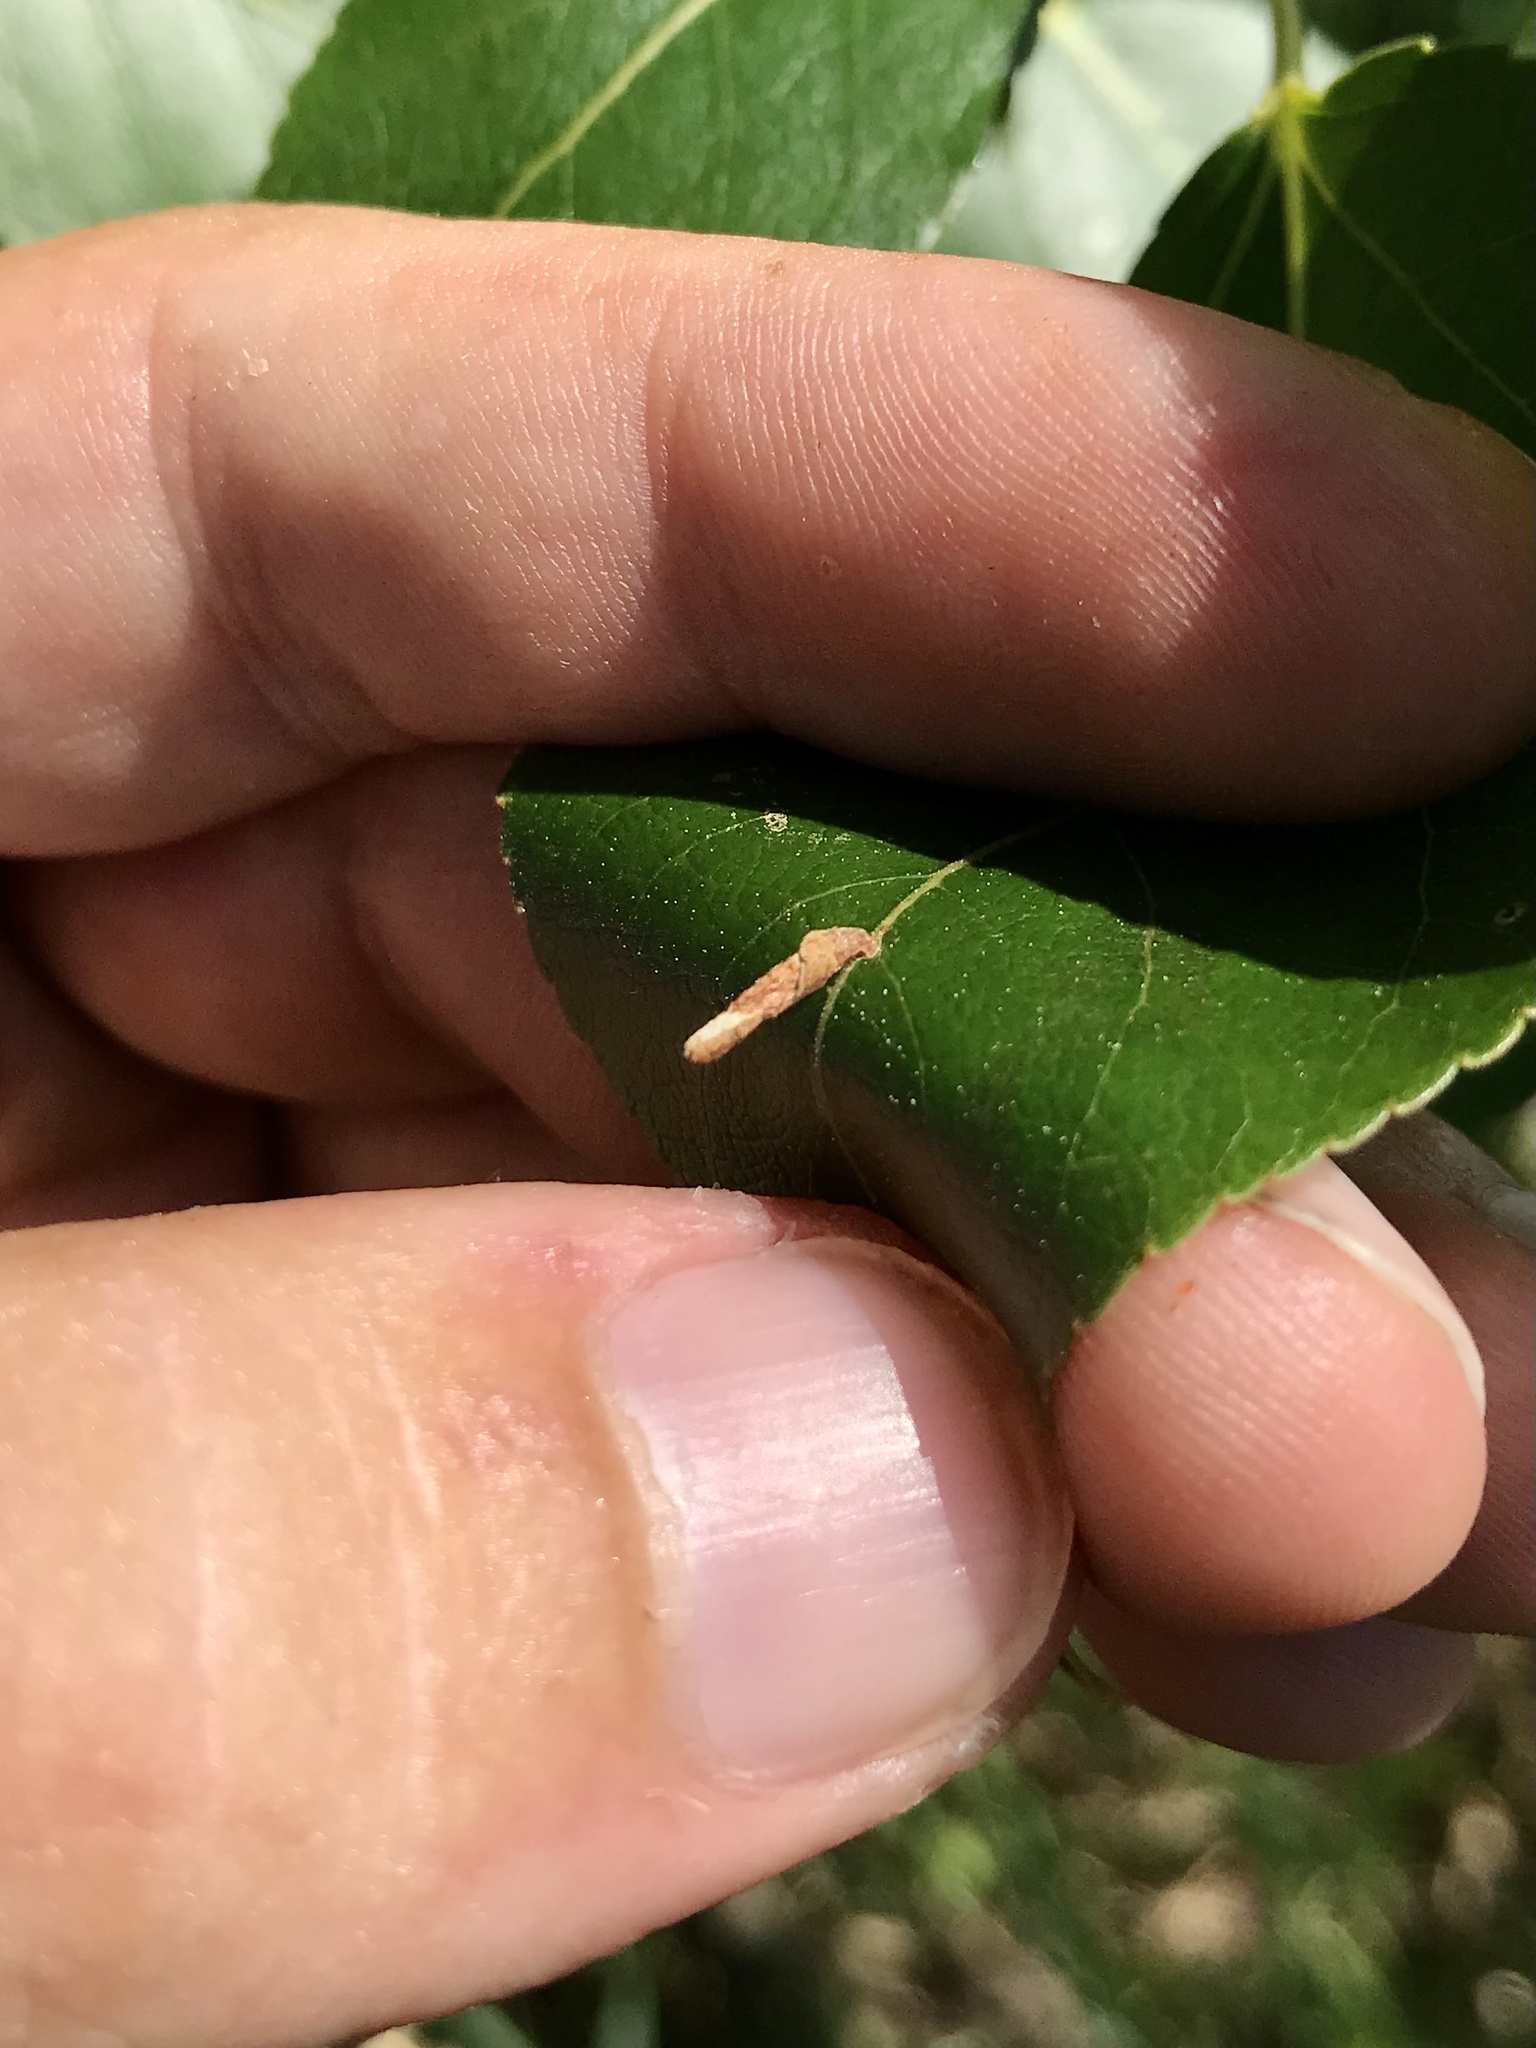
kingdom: Animalia
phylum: Arthropoda
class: Insecta
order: Lepidoptera
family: Coleophoridae
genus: Coleophora
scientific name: Coleophora pruniella
